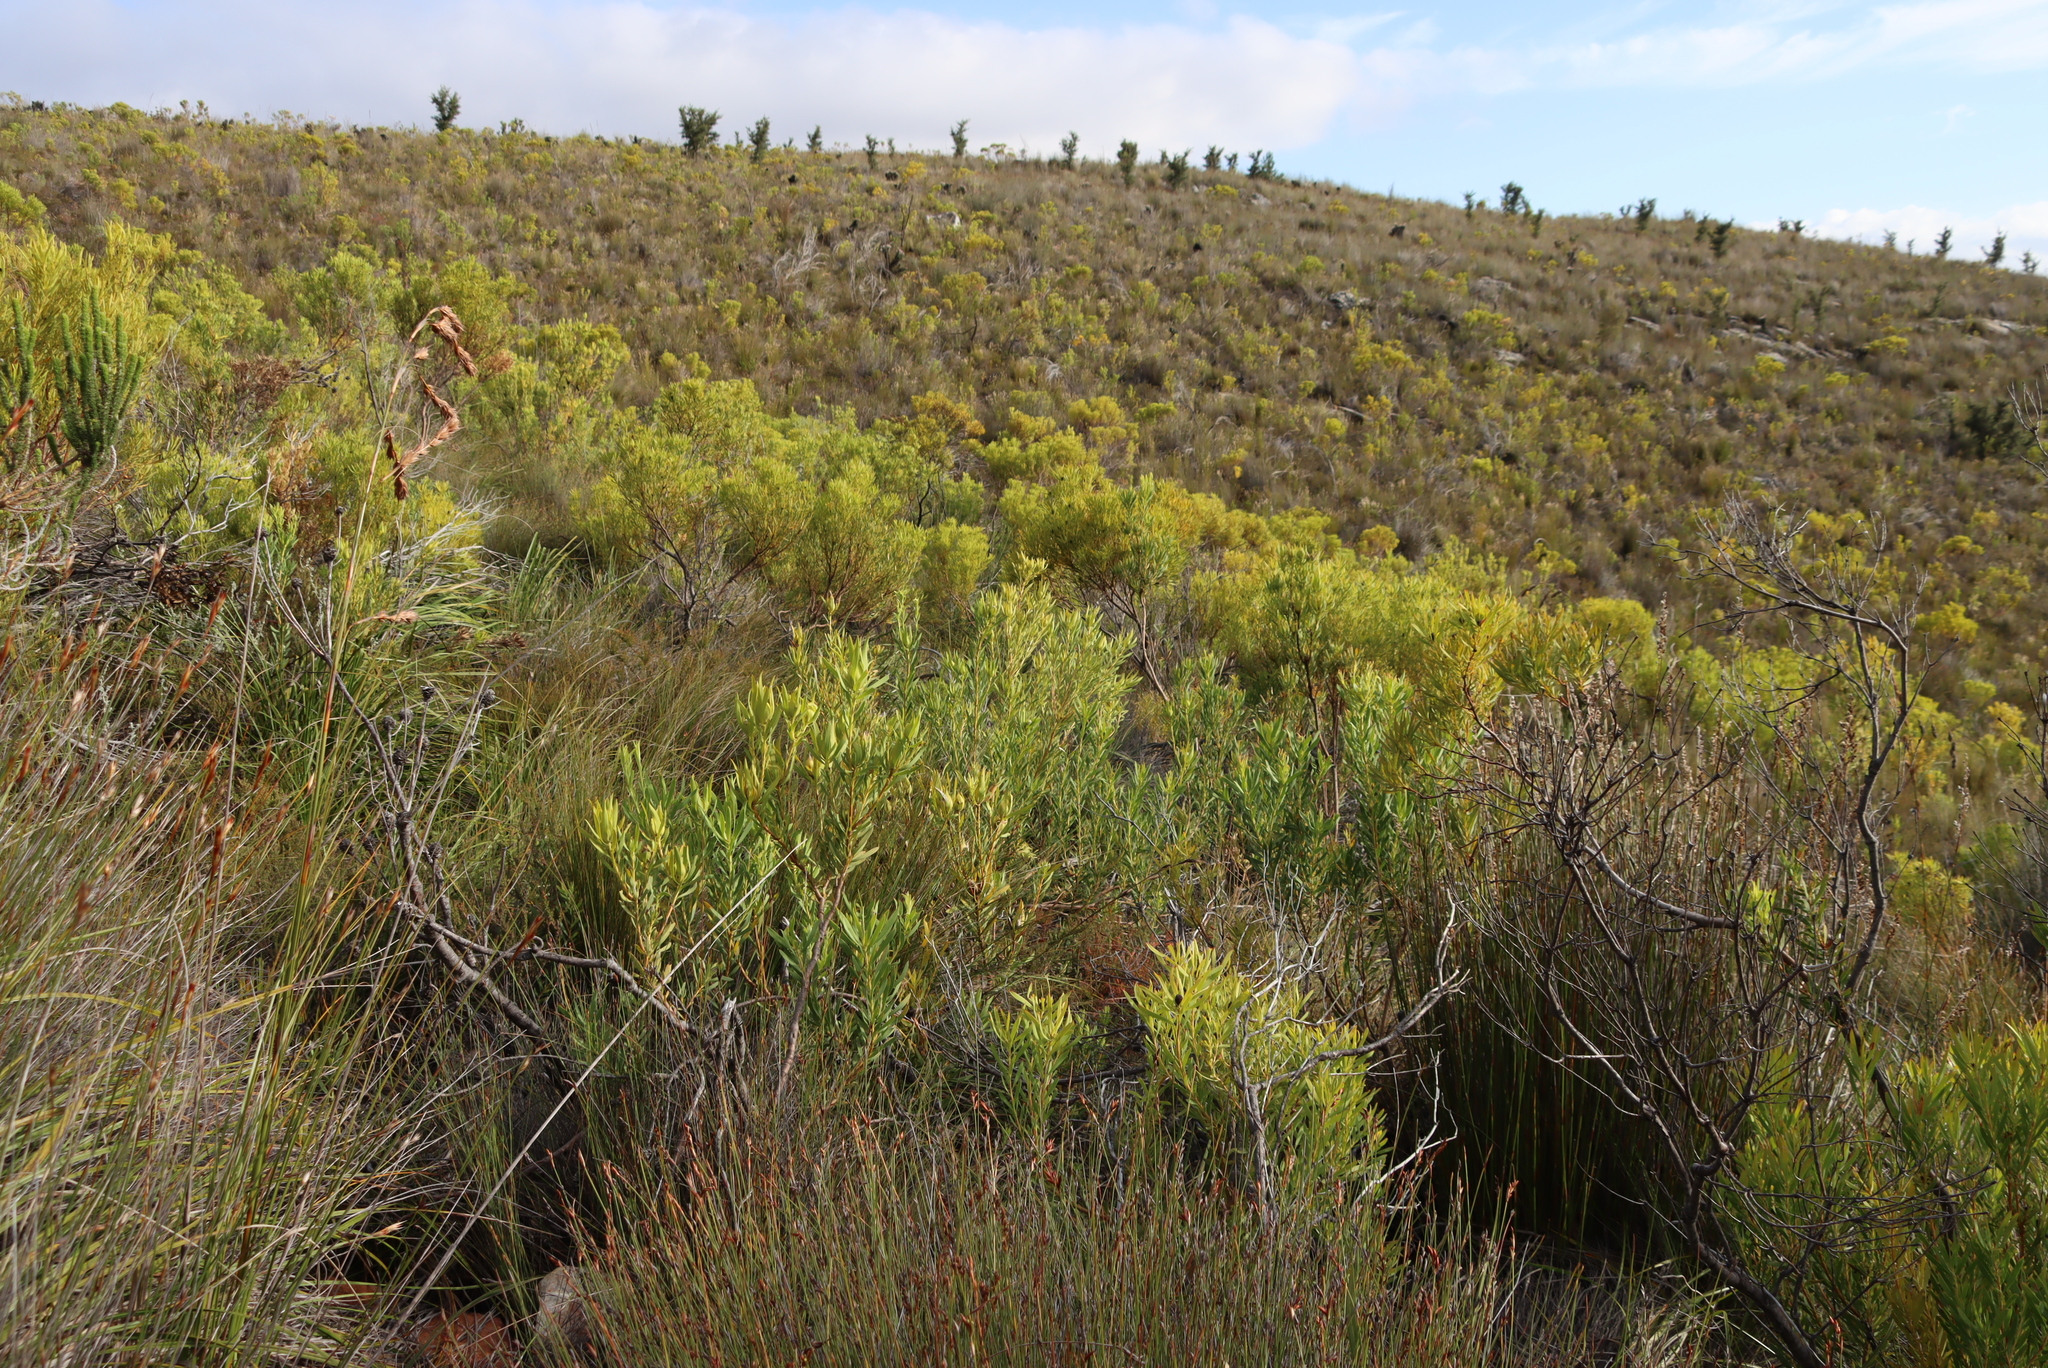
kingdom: Plantae
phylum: Tracheophyta
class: Magnoliopsida
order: Proteales
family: Proteaceae
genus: Hakea
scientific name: Hakea sericea
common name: Needle bush
